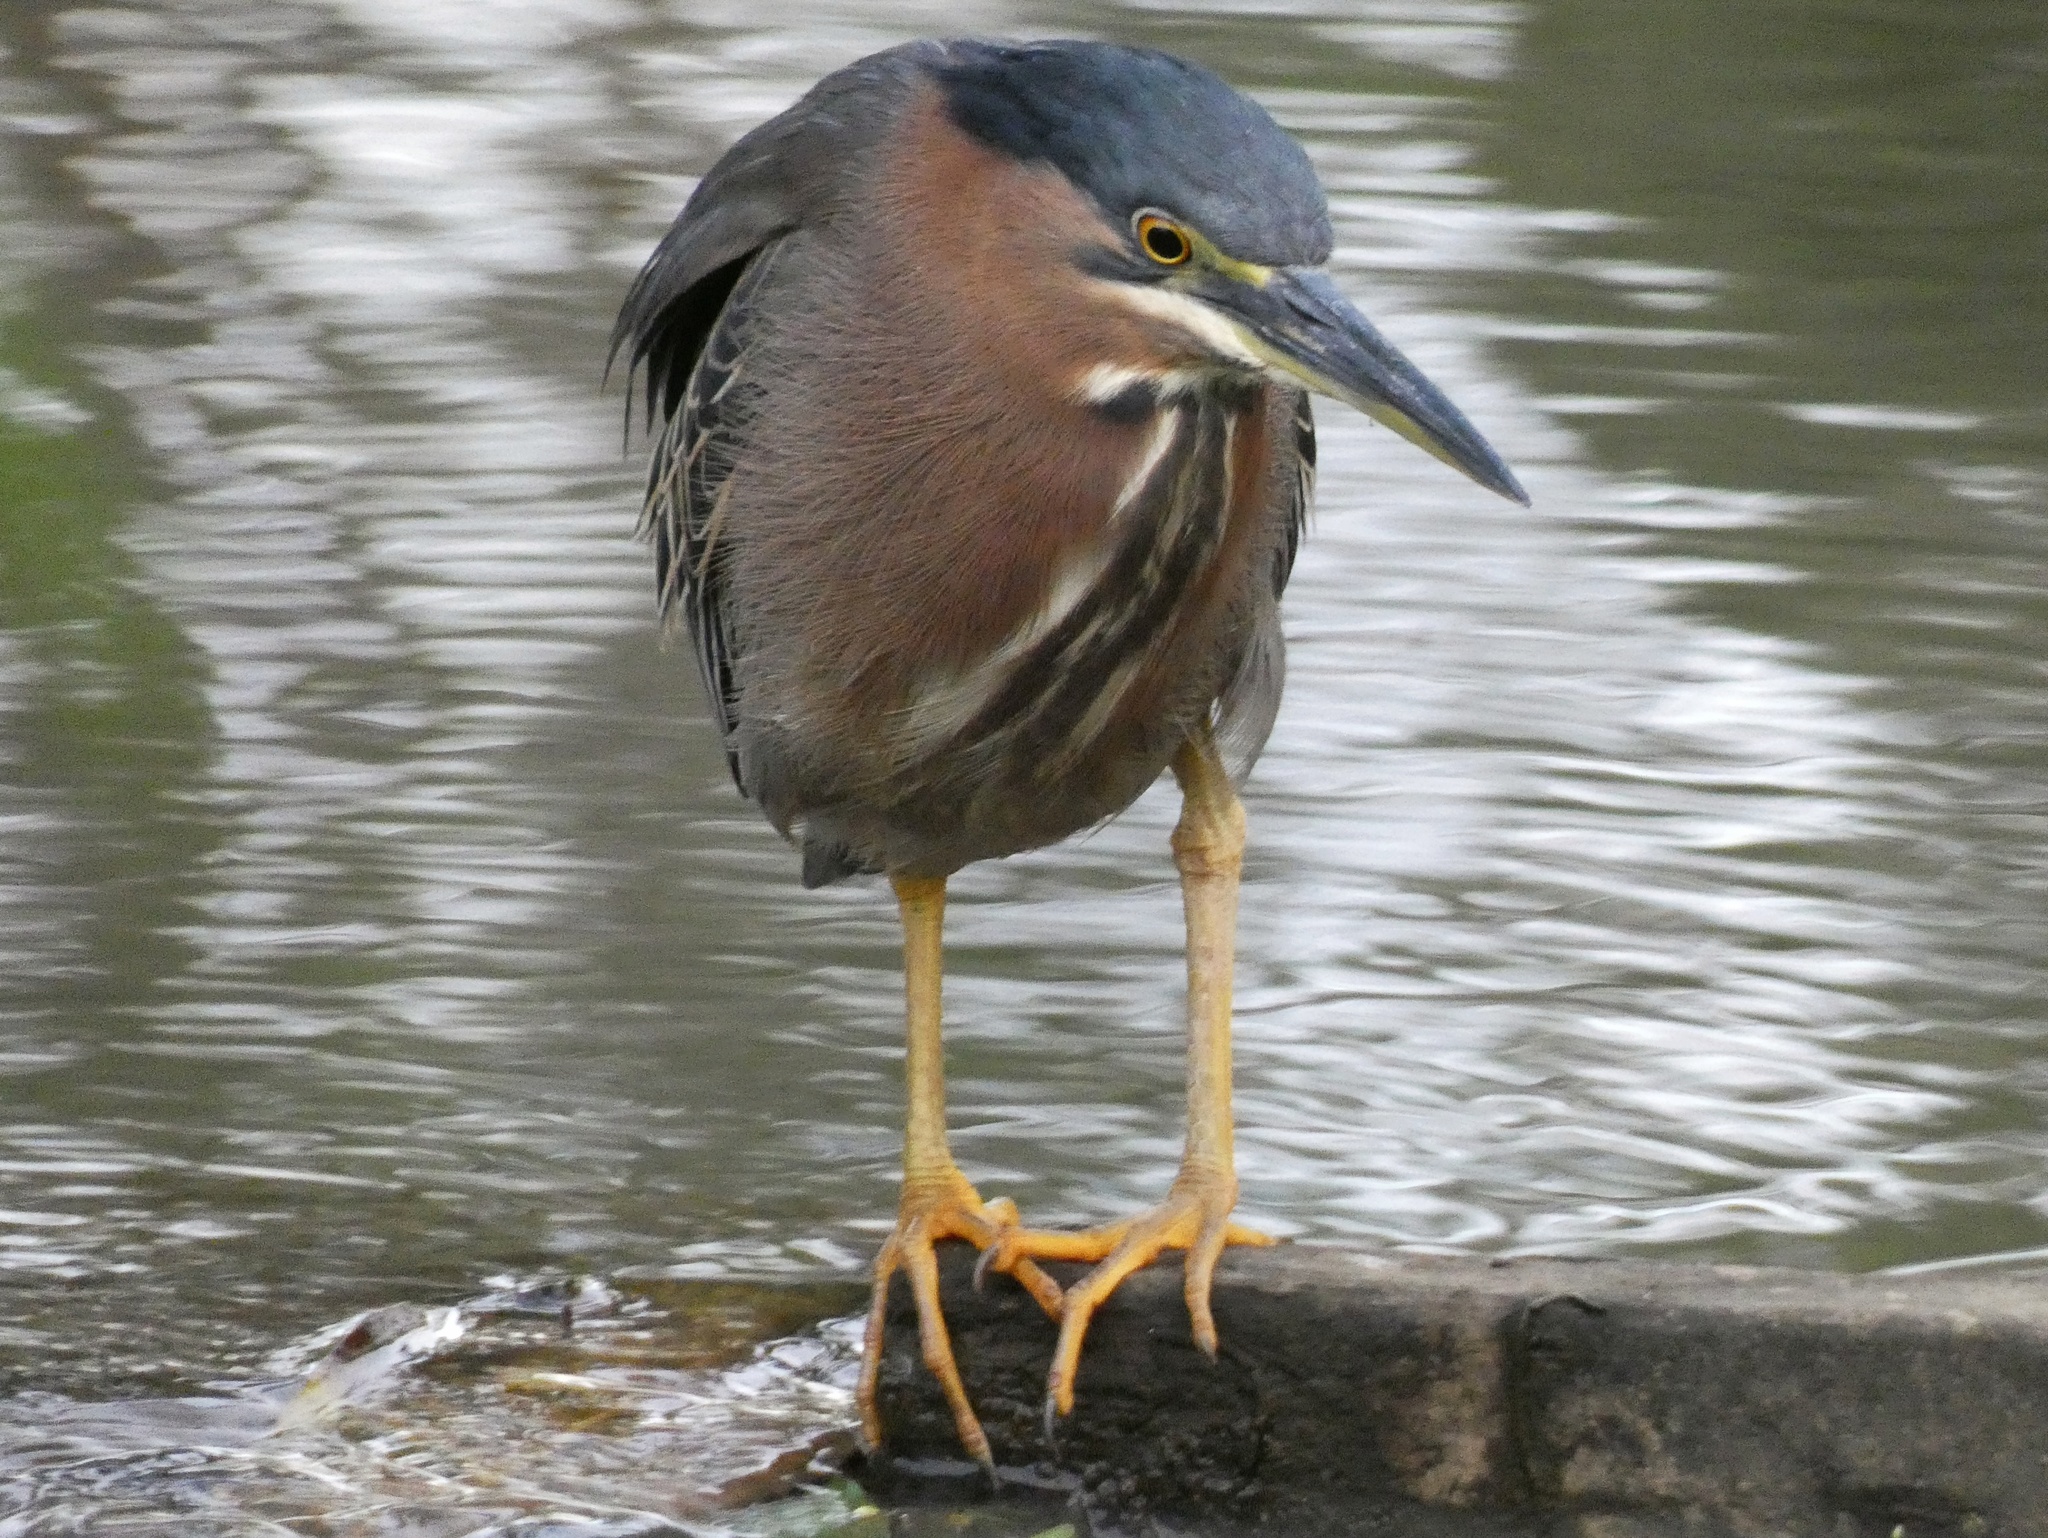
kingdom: Animalia
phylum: Chordata
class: Aves
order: Pelecaniformes
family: Ardeidae
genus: Butorides
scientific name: Butorides virescens
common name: Green heron
